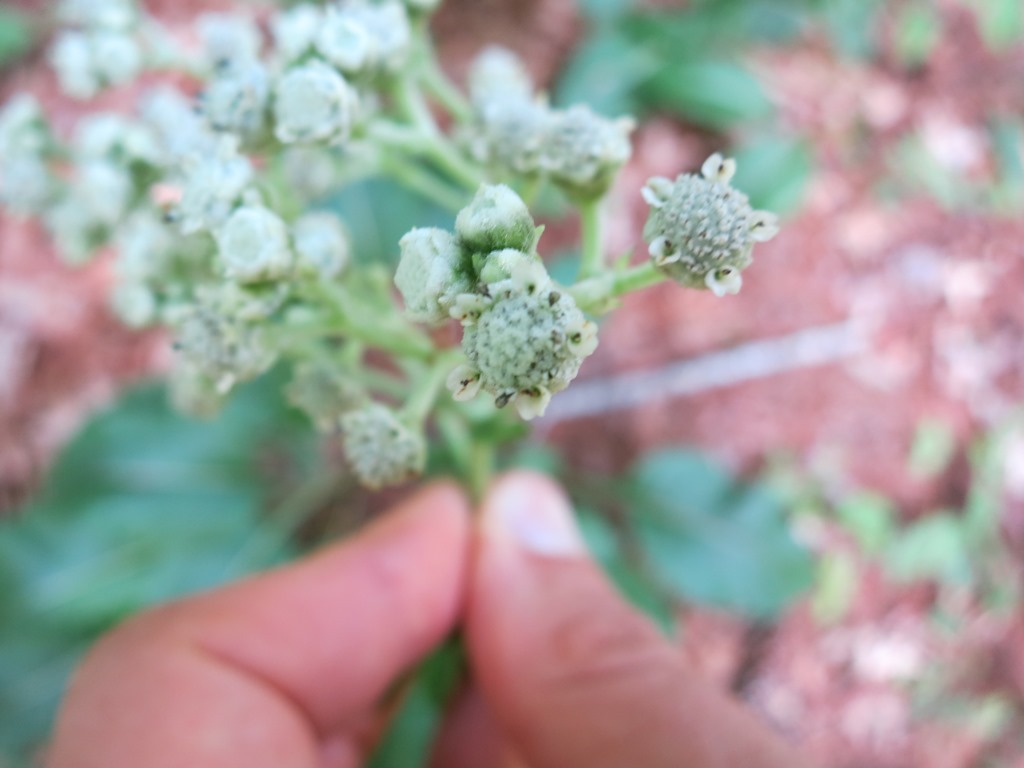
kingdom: Plantae
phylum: Tracheophyta
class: Magnoliopsida
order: Asterales
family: Asteraceae
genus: Parthenium
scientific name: Parthenium integrifolium
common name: American feverfew
